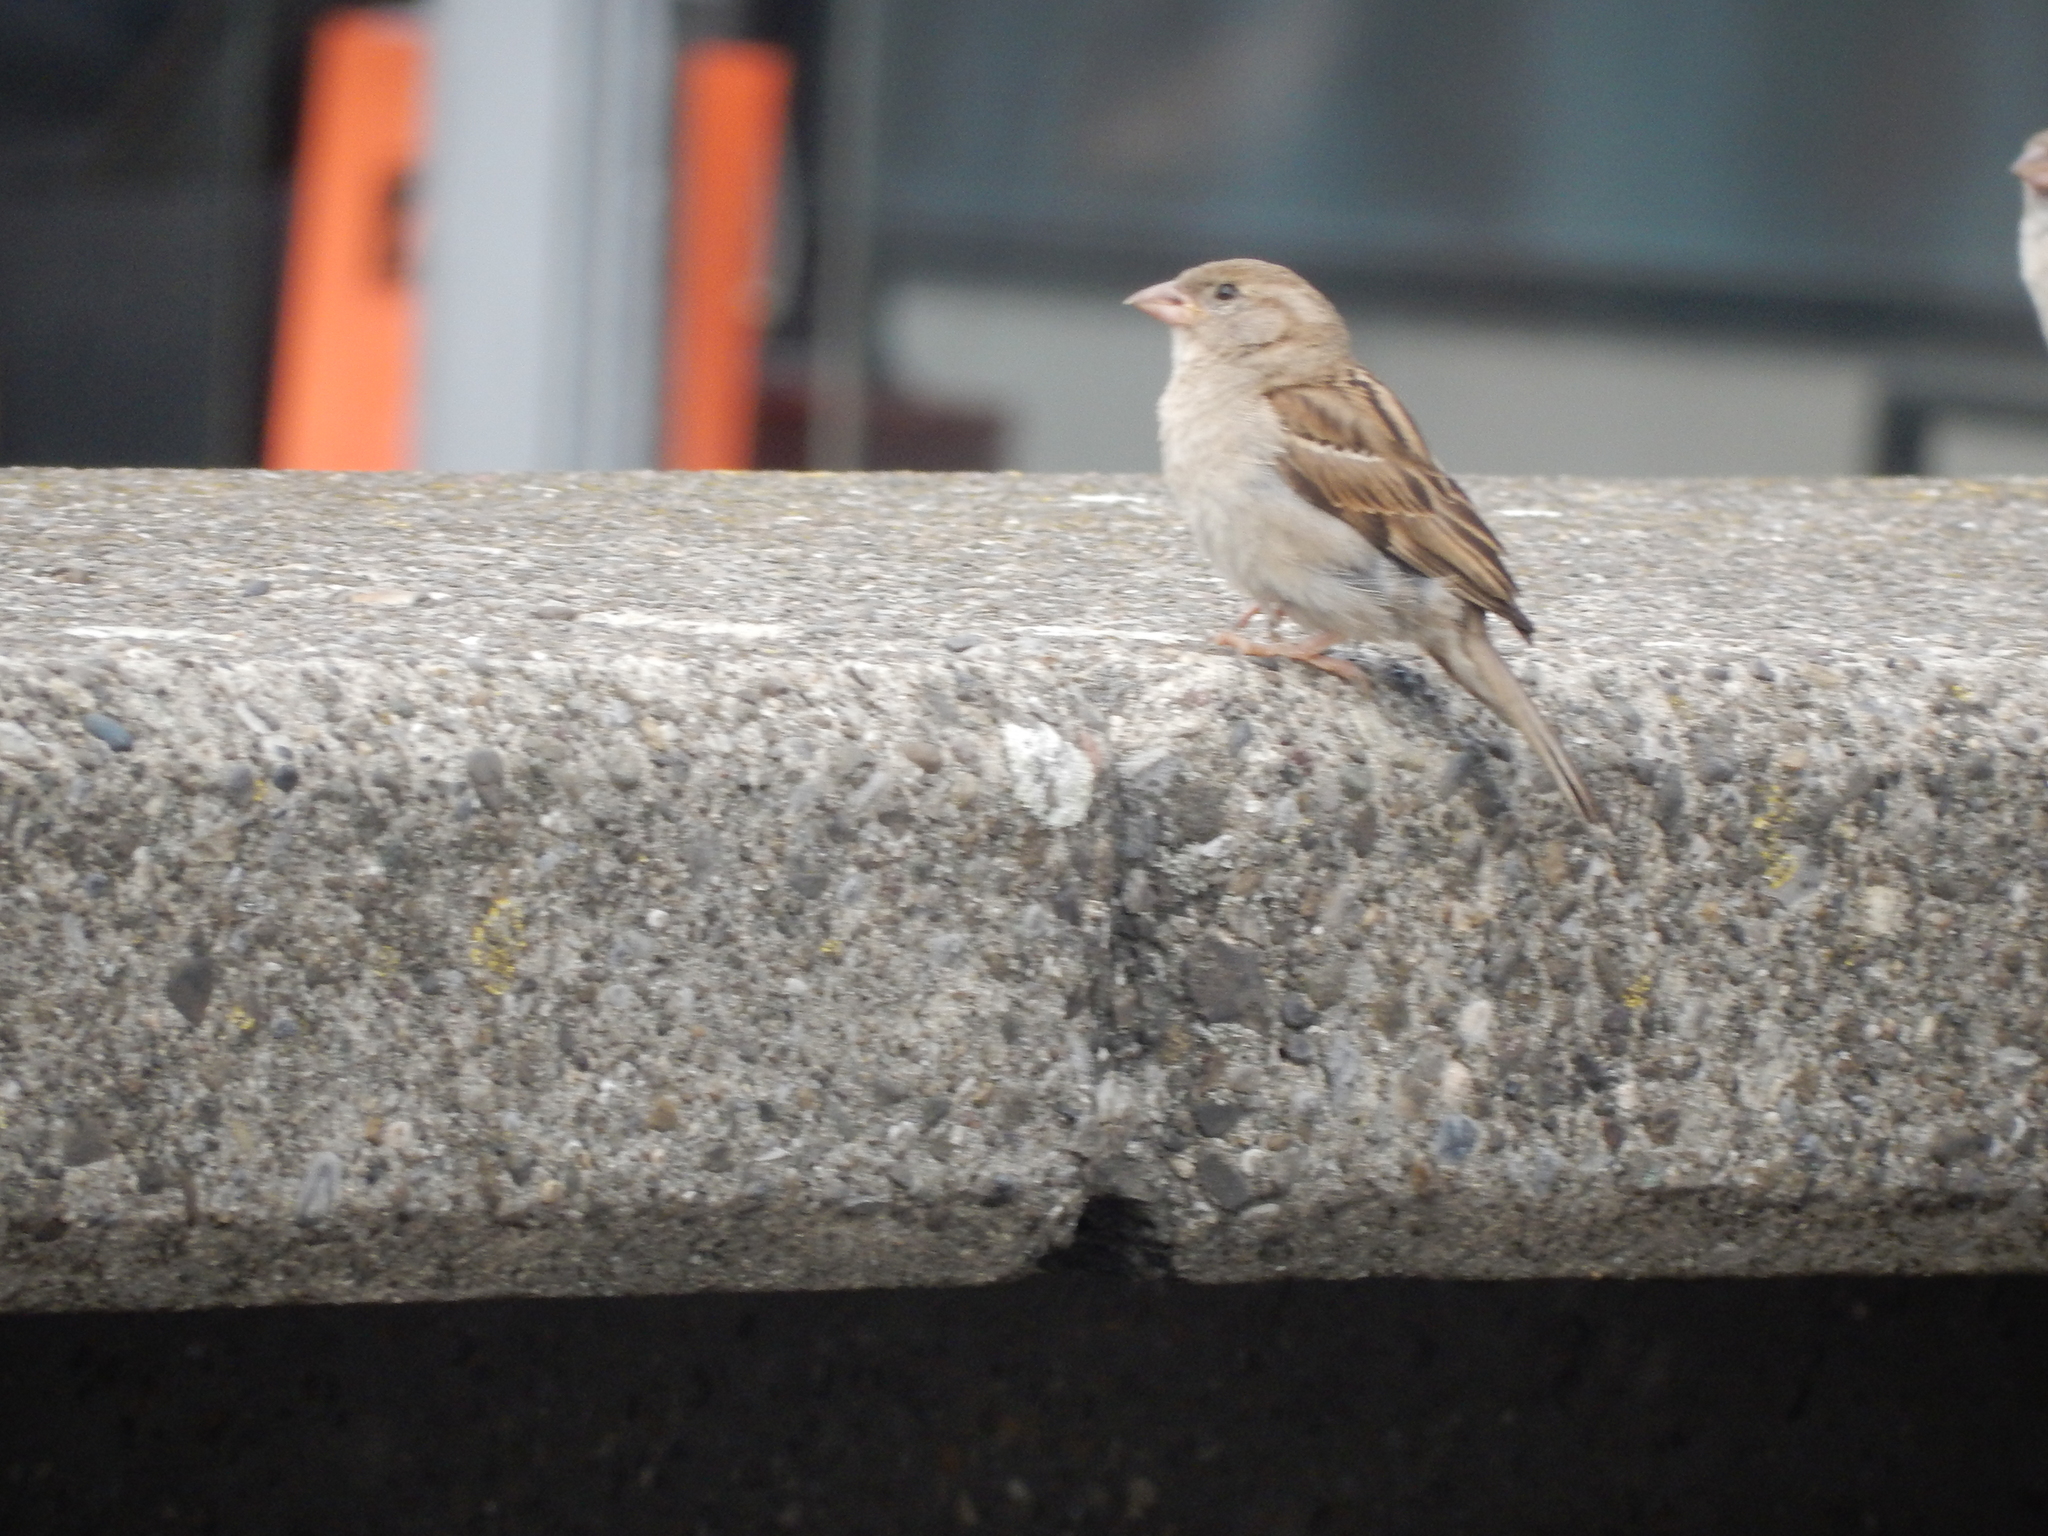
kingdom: Animalia
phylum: Chordata
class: Aves
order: Passeriformes
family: Passeridae
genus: Passer
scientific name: Passer domesticus
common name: House sparrow
